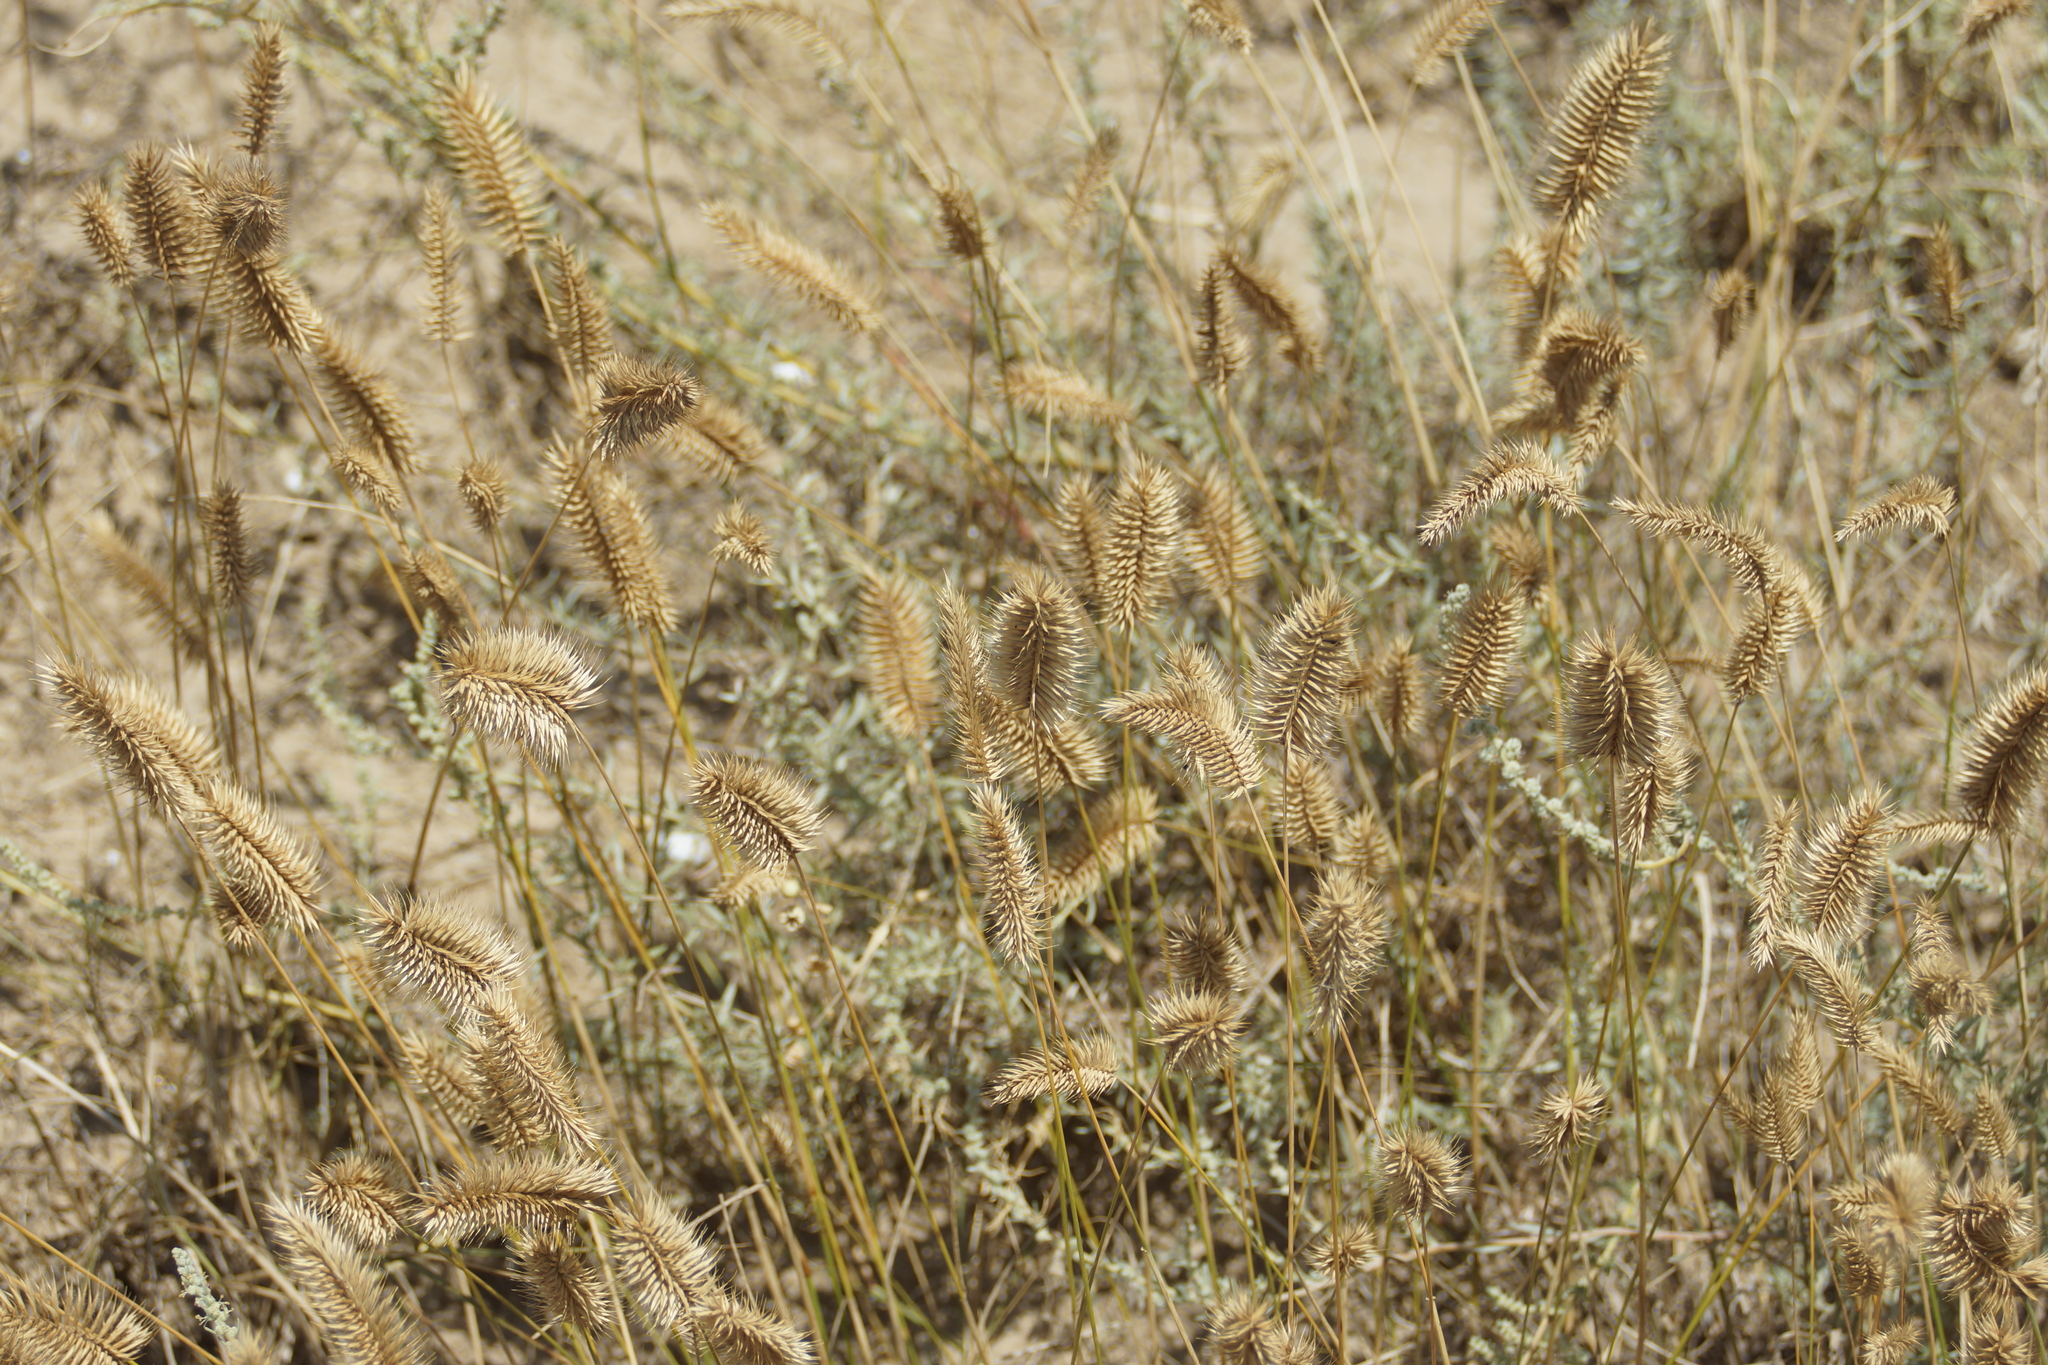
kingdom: Plantae
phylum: Tracheophyta
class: Liliopsida
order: Poales
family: Poaceae
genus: Agropyron
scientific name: Agropyron cristatum
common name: Crested wheatgrass
